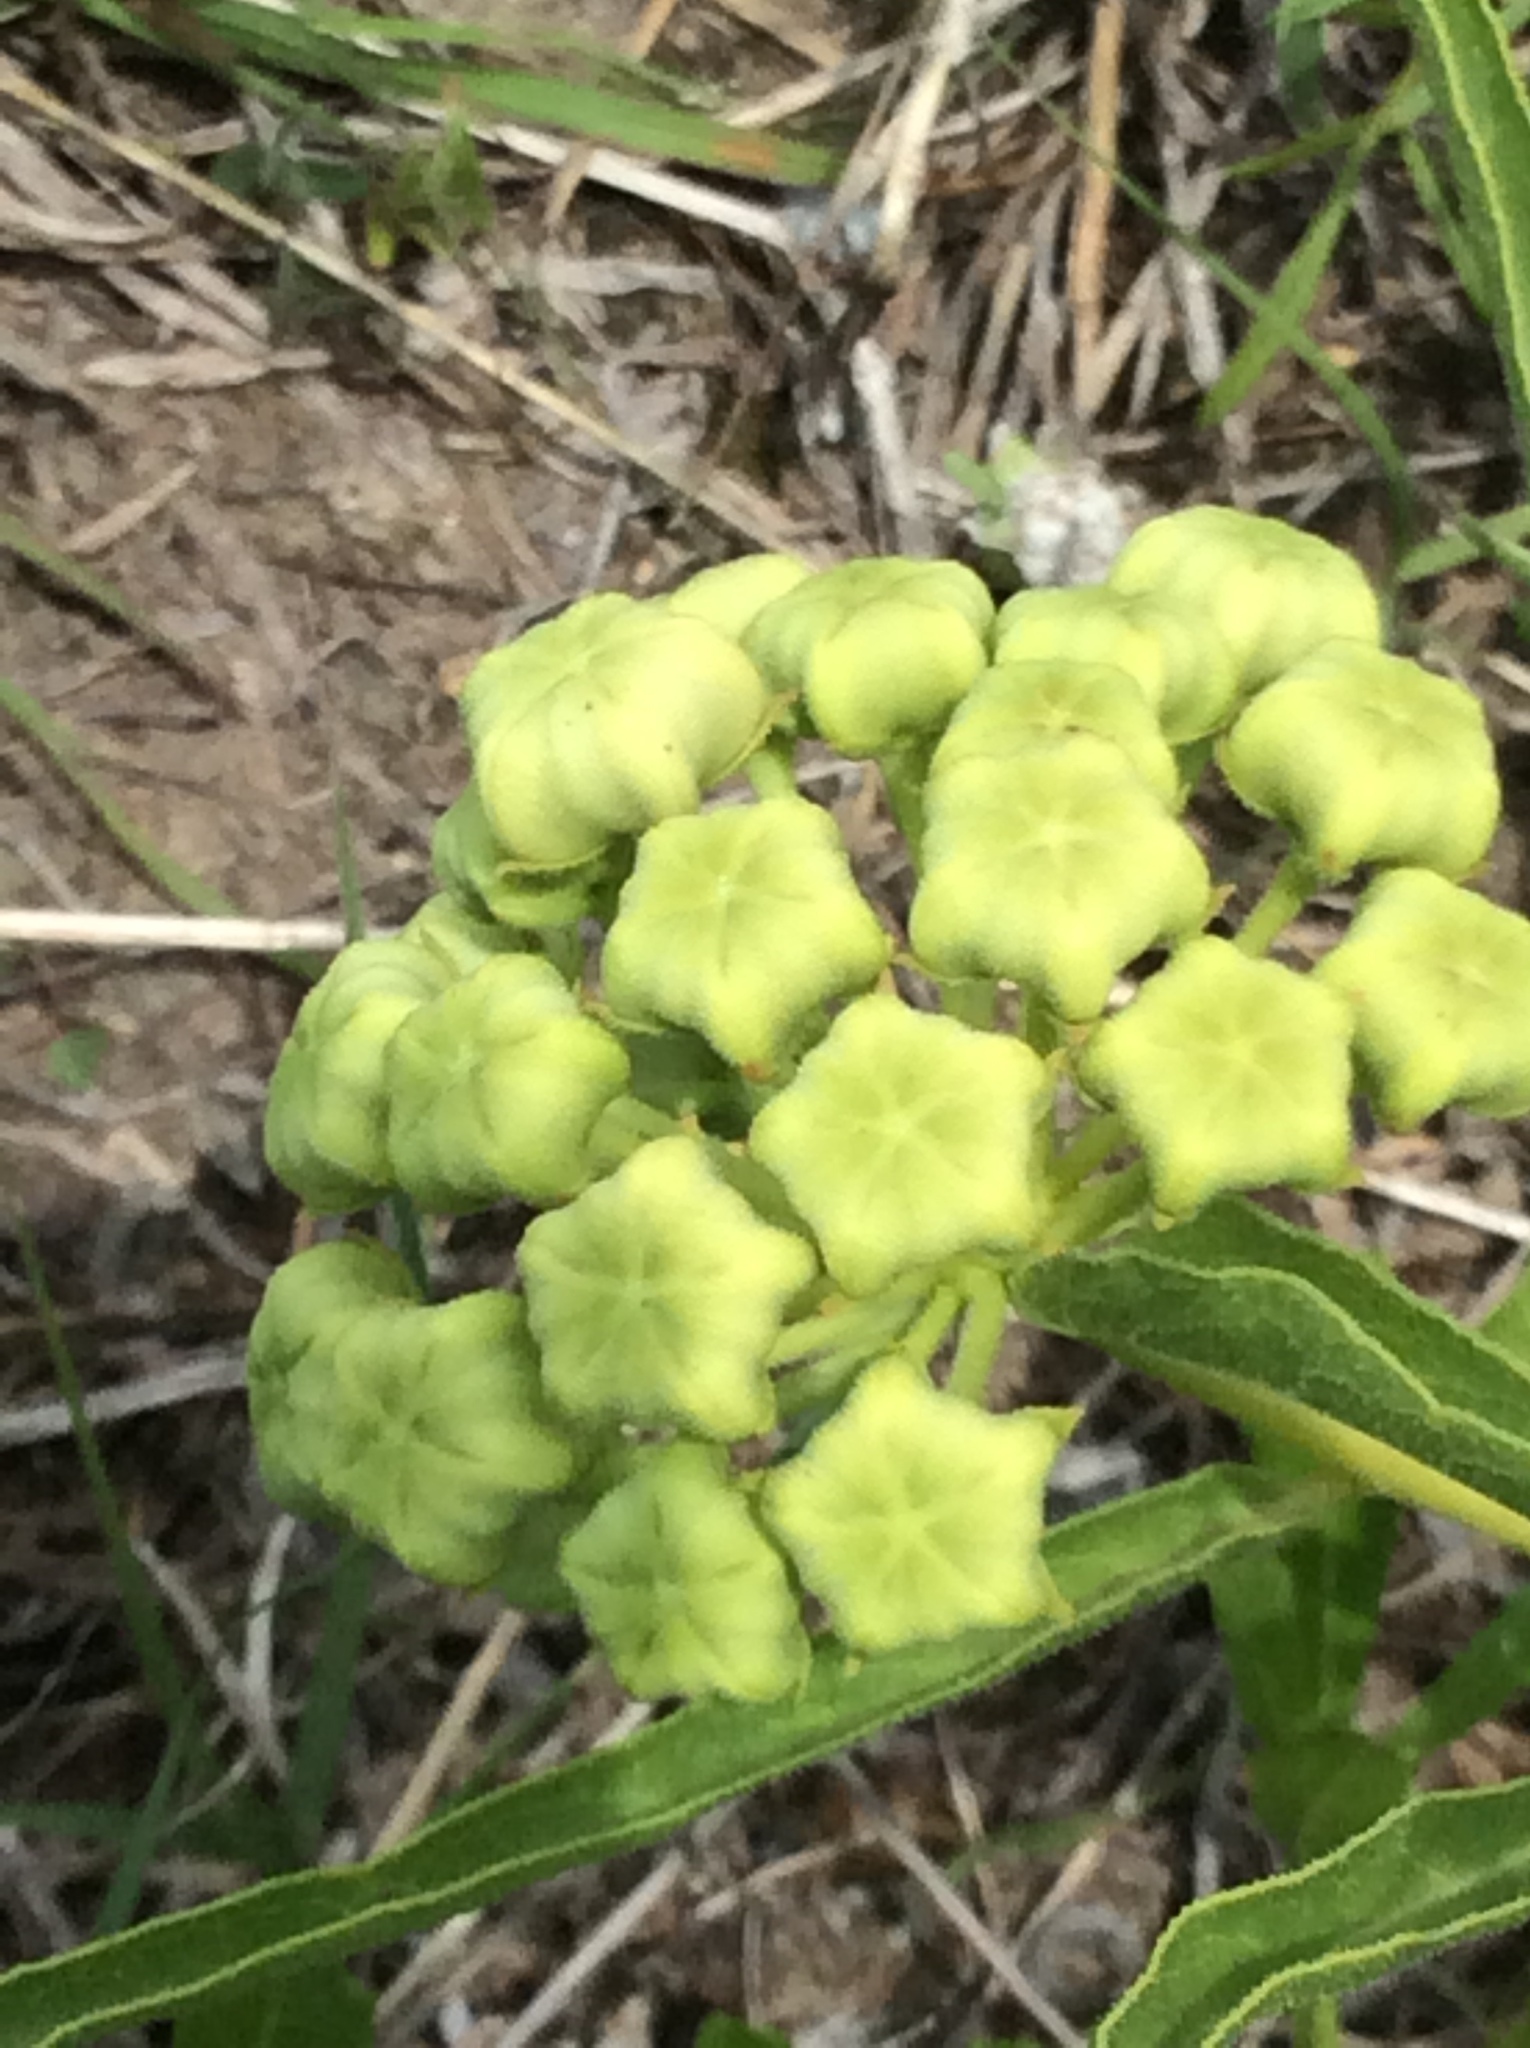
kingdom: Plantae
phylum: Tracheophyta
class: Magnoliopsida
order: Gentianales
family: Apocynaceae
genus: Asclepias
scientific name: Asclepias asperula
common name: Antelope horns
